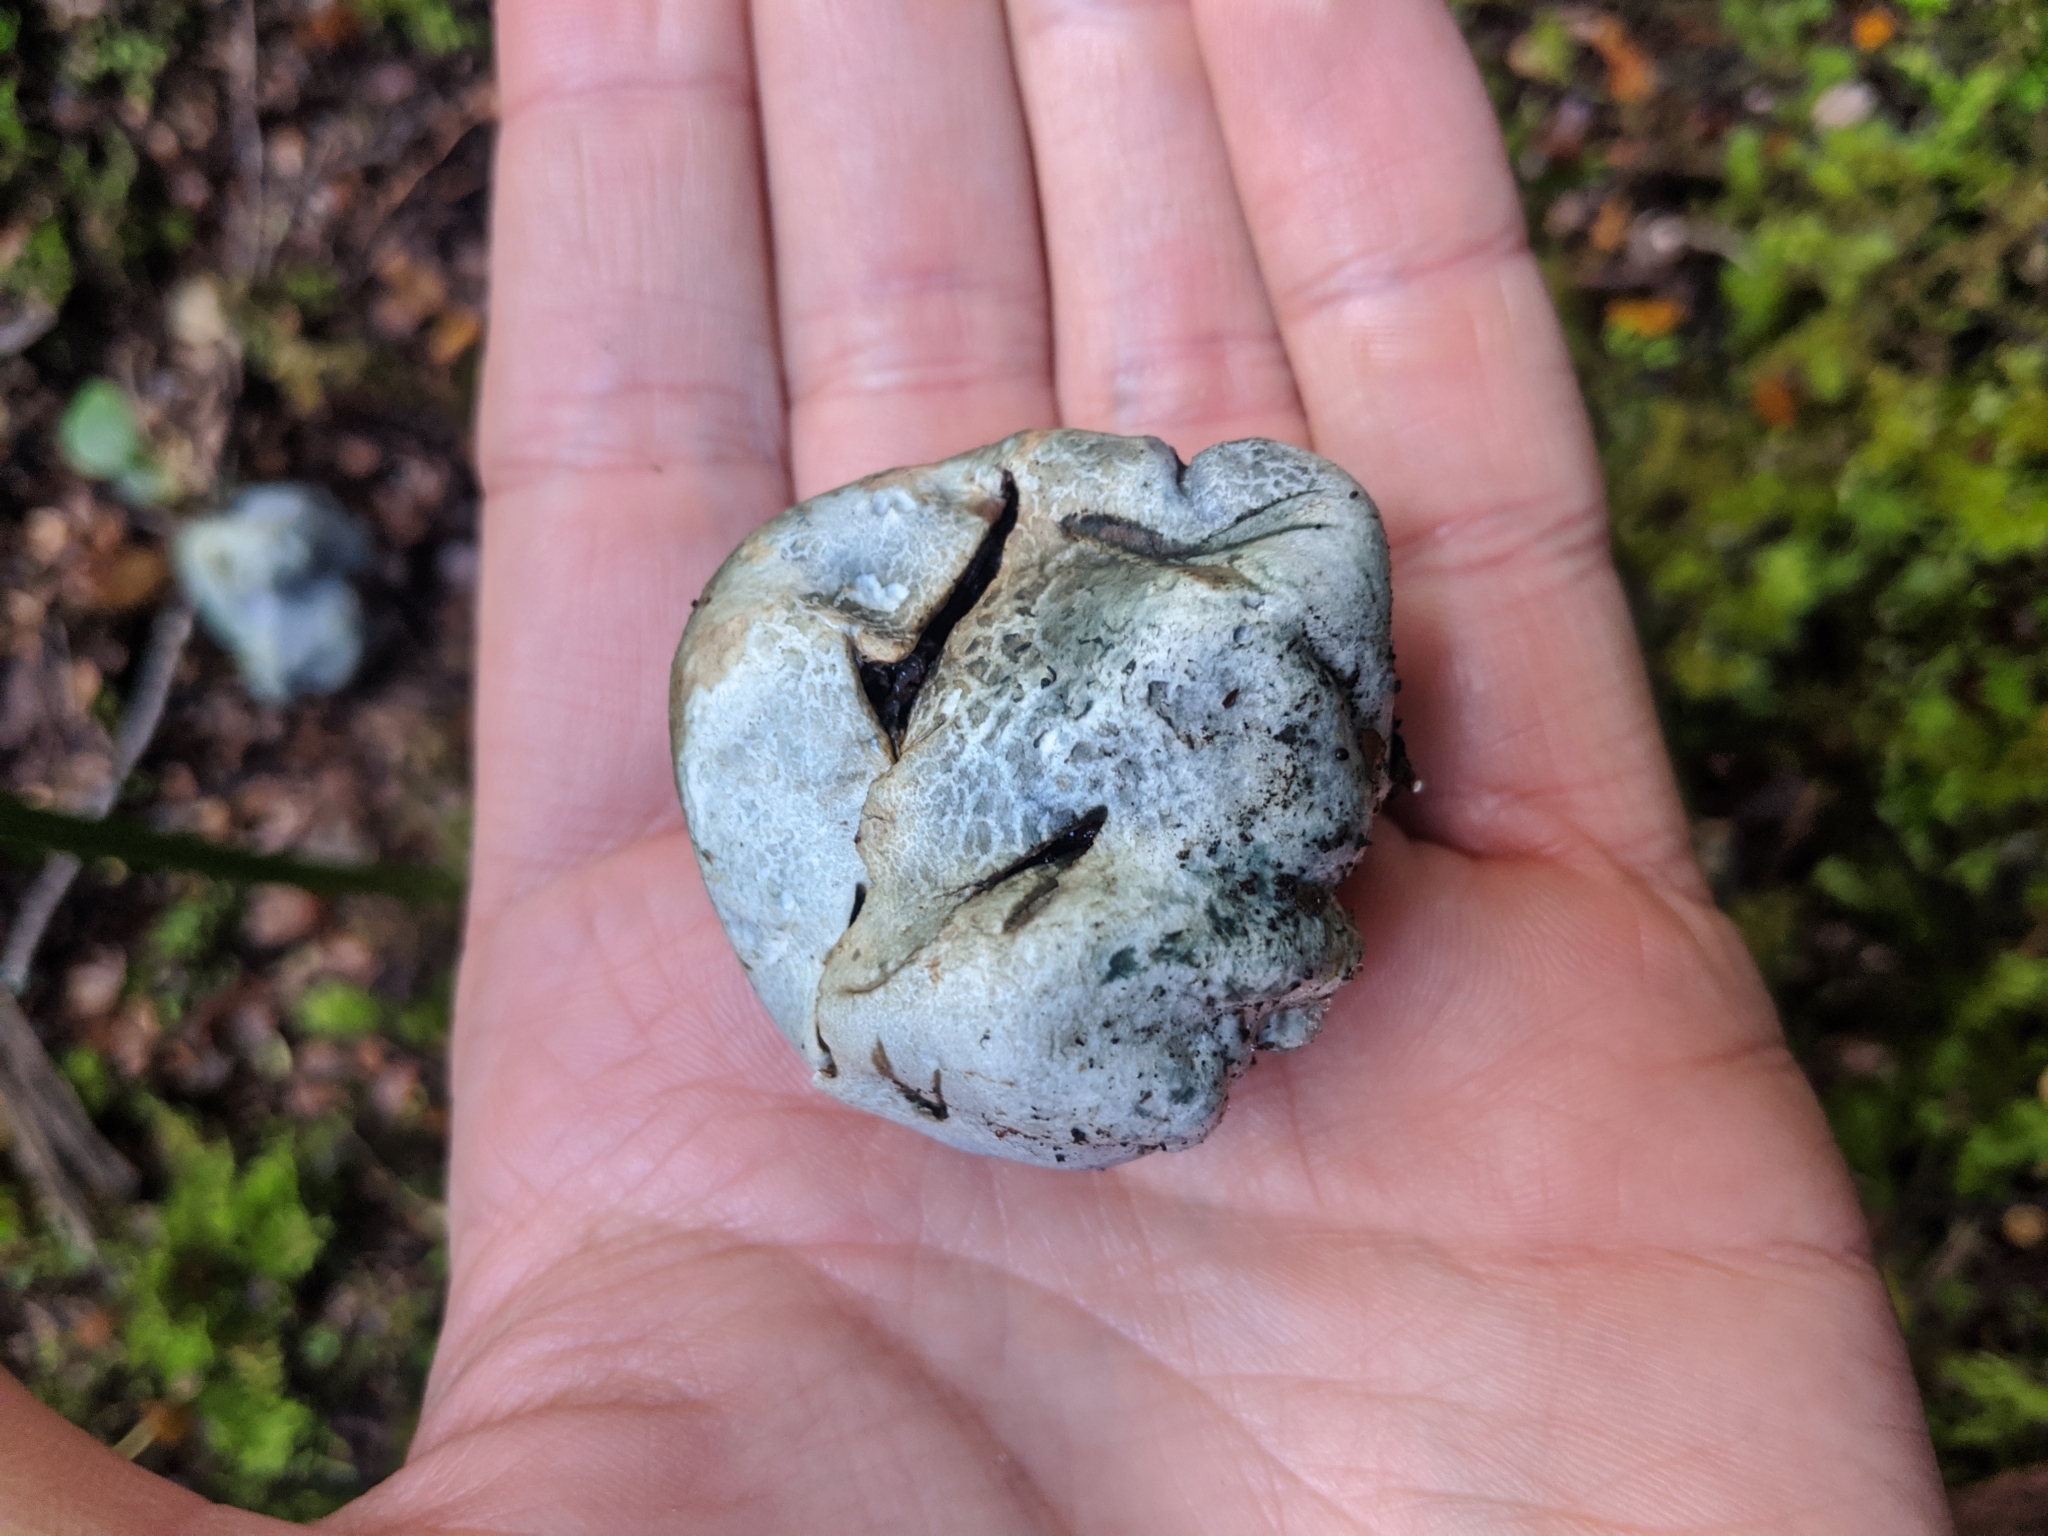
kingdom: Fungi
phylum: Basidiomycota
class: Agaricomycetes
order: Boletales
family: Boletaceae
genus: Leccinum
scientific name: Leccinum pachyderme
